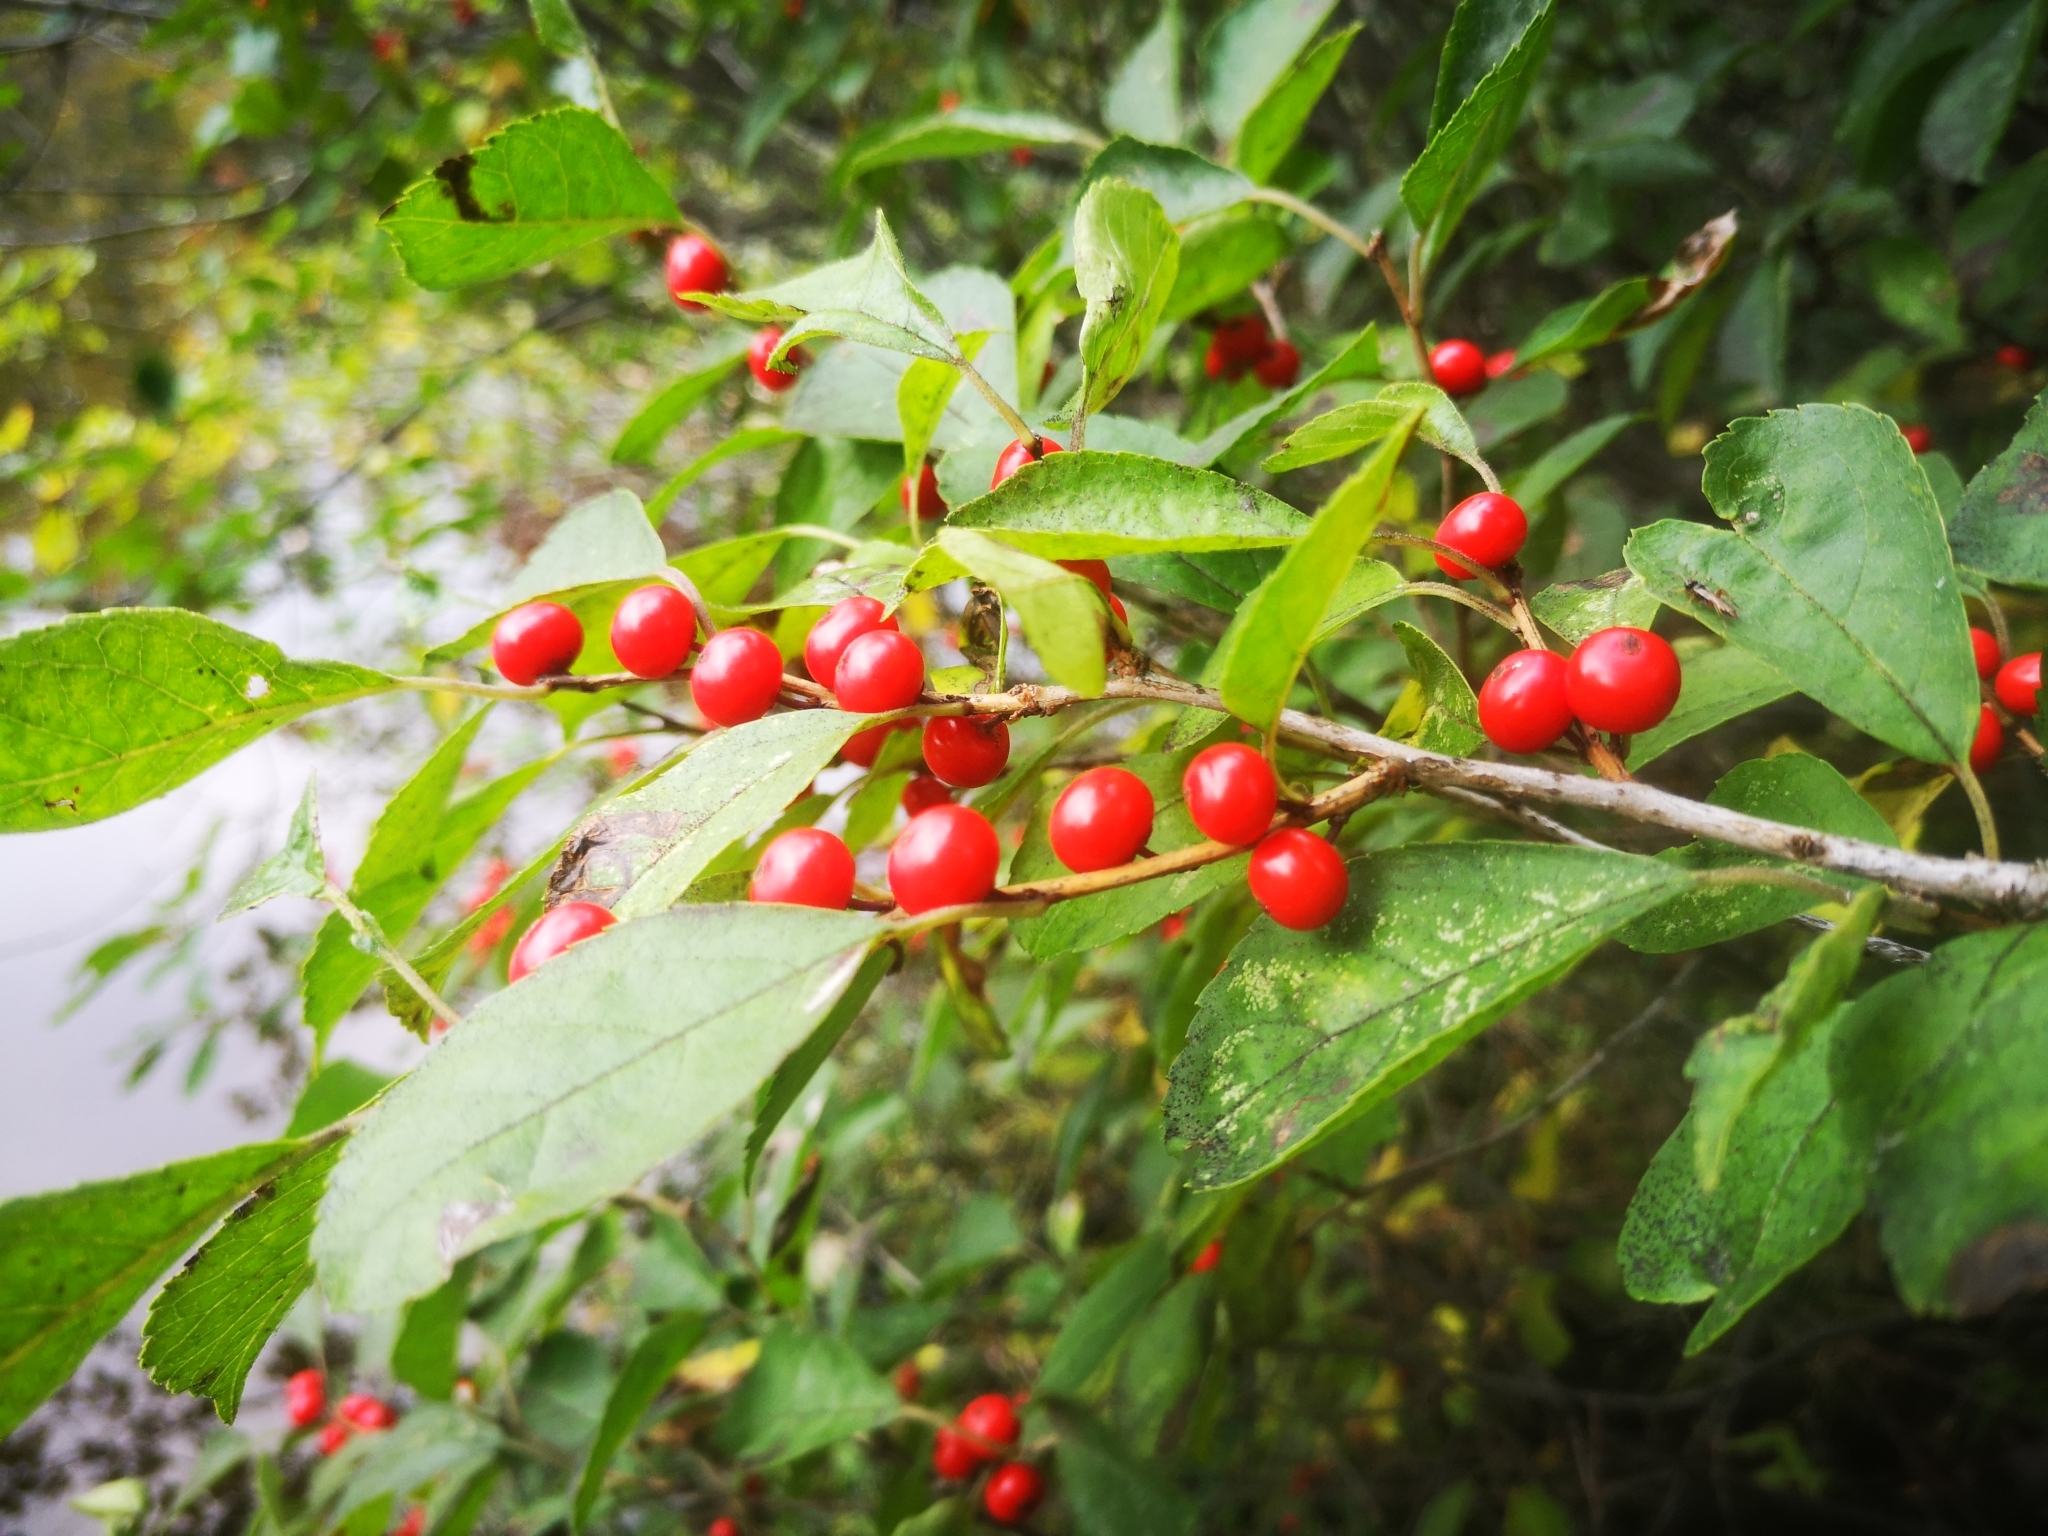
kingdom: Plantae
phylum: Tracheophyta
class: Magnoliopsida
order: Aquifoliales
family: Aquifoliaceae
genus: Ilex
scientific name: Ilex verticillata
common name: Virginia winterberry
